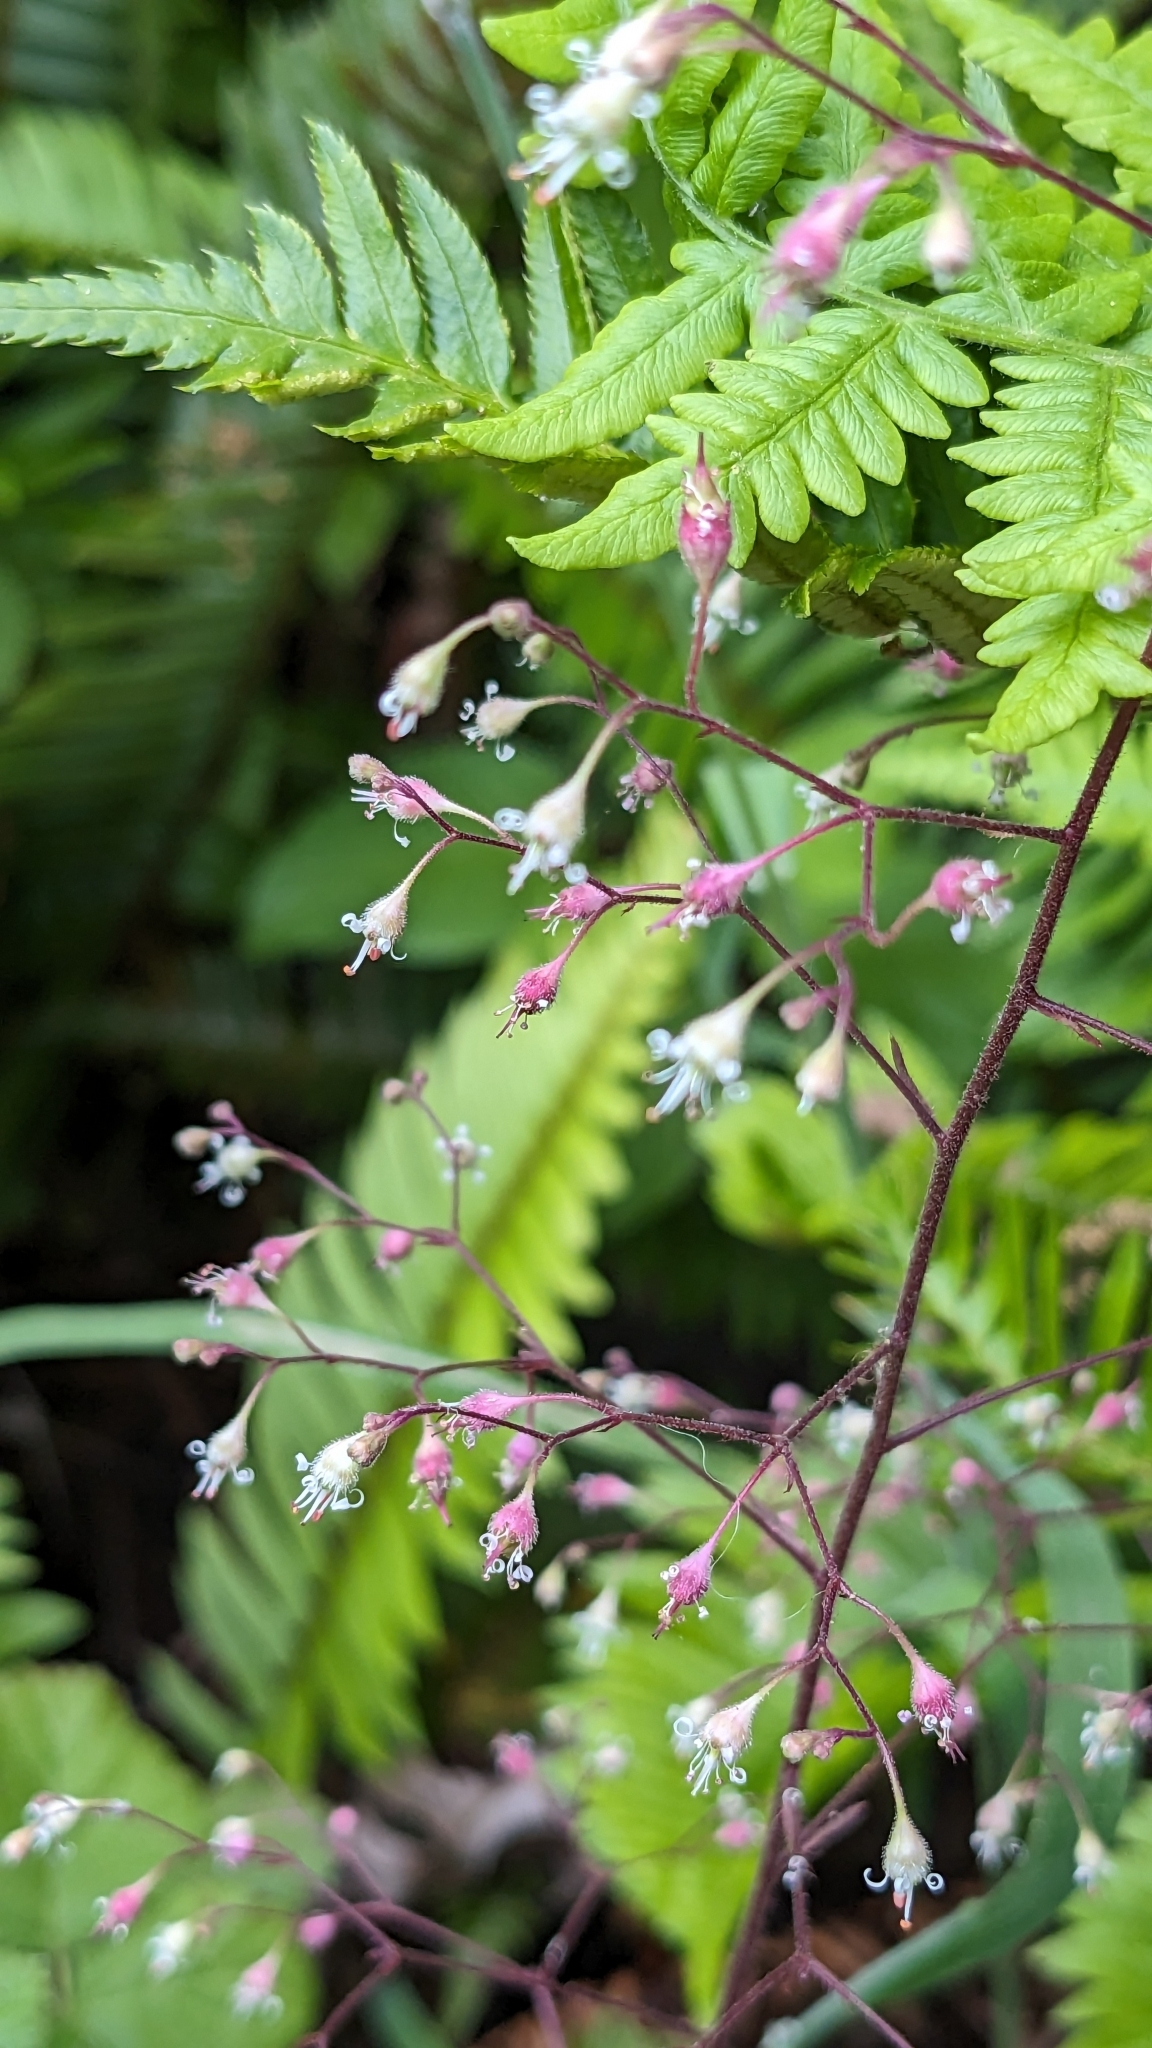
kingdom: Plantae
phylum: Tracheophyta
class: Magnoliopsida
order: Saxifragales
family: Saxifragaceae
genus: Heuchera
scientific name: Heuchera micrantha
